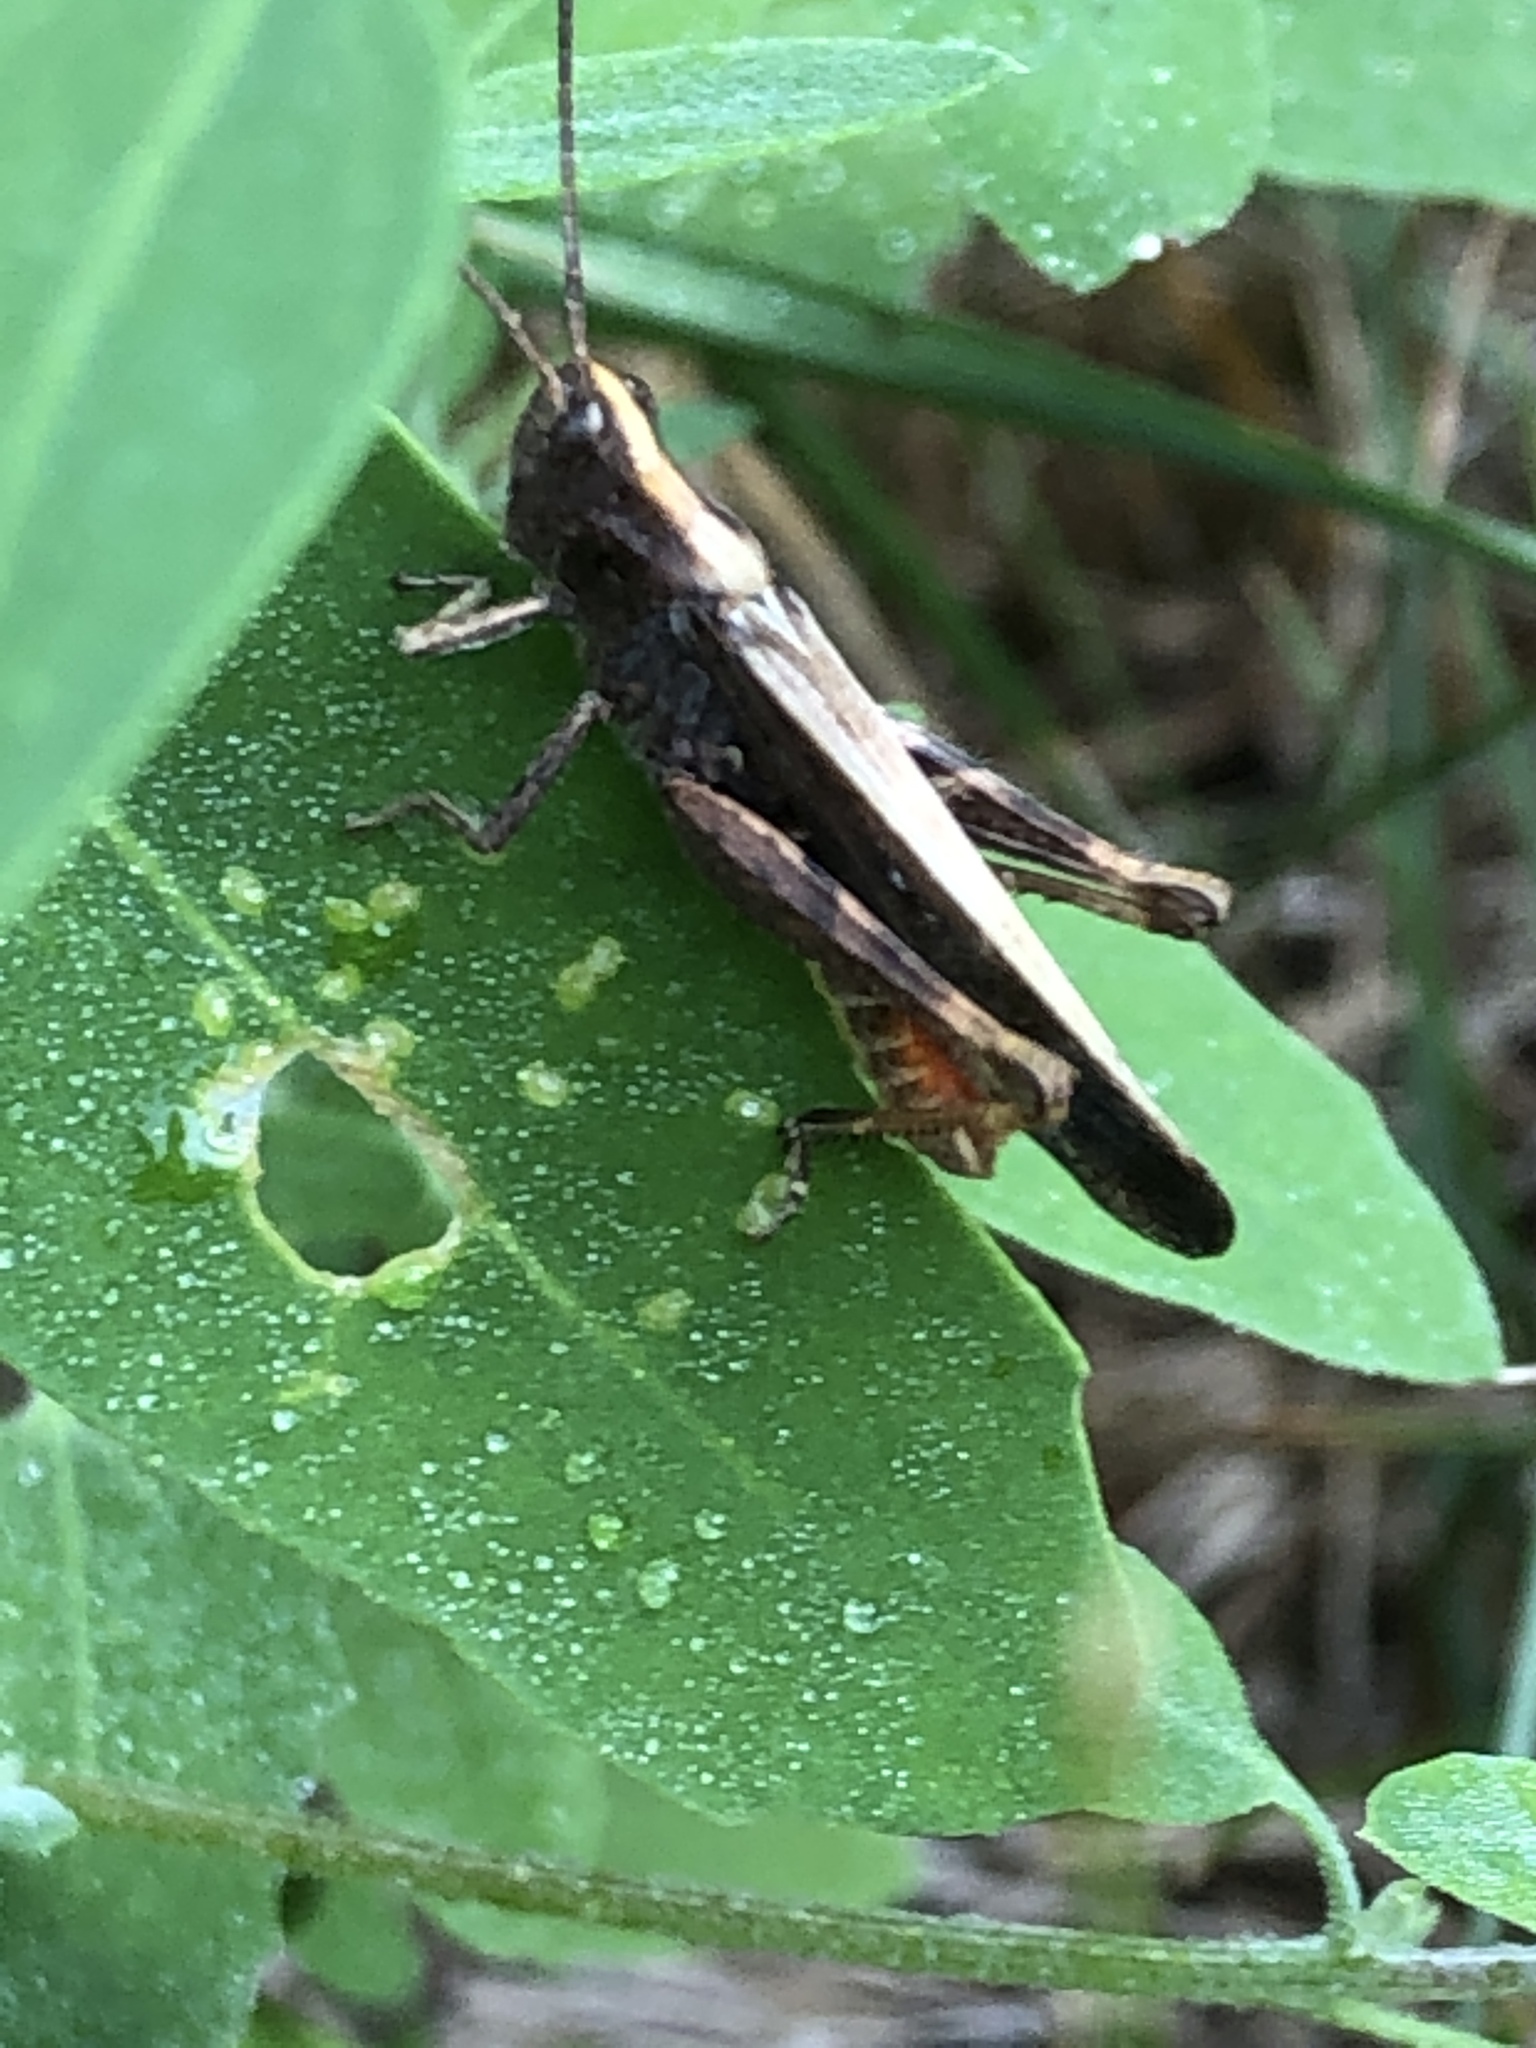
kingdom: Animalia
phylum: Arthropoda
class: Insecta
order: Orthoptera
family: Acrididae
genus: Chorthippus
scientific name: Chorthippus brunneus
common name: Field grasshopper
